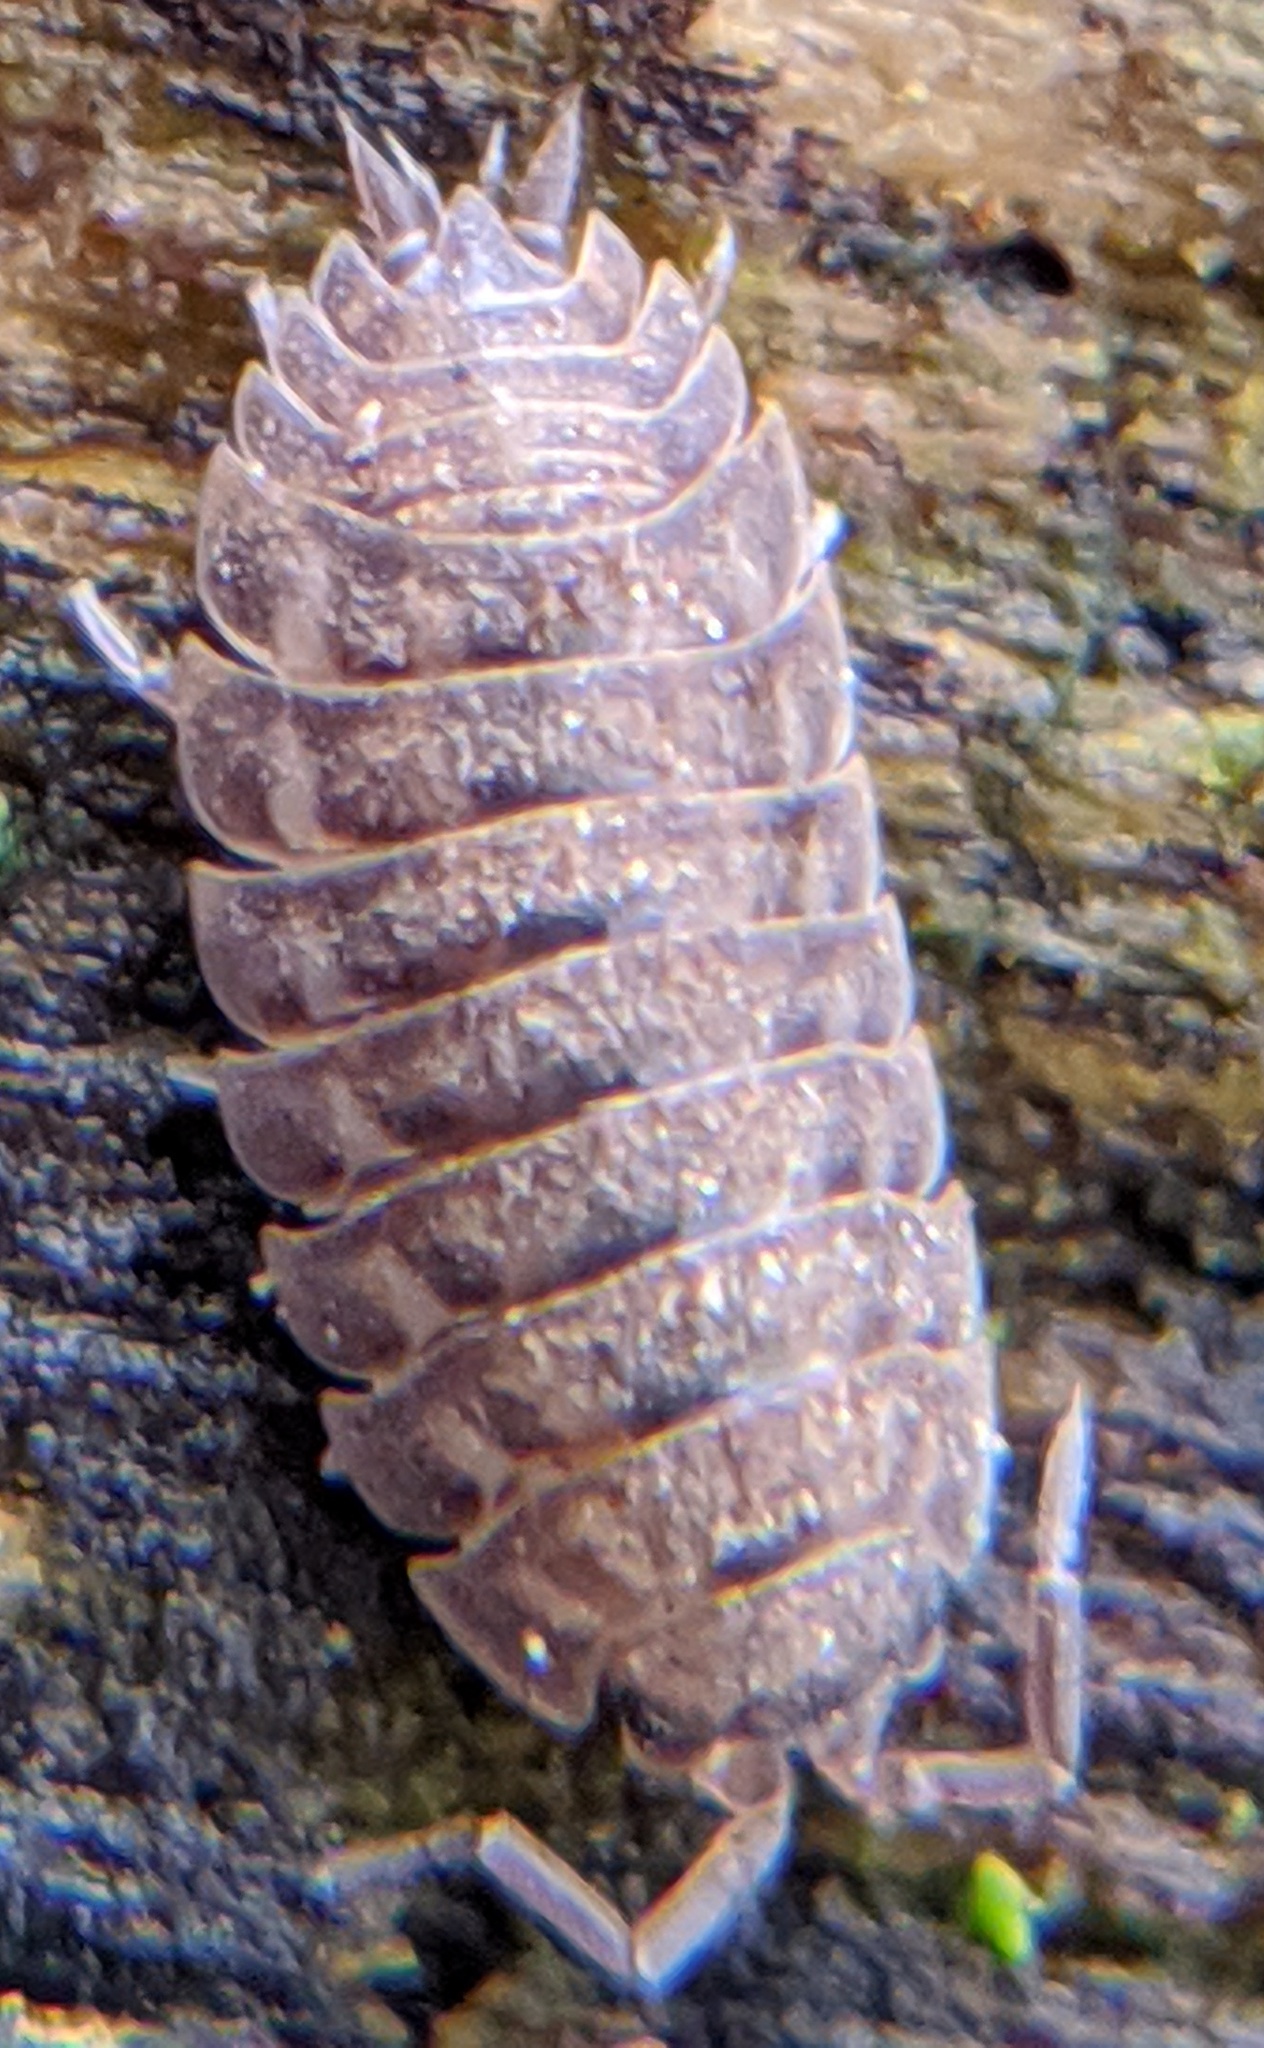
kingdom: Animalia
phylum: Arthropoda
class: Malacostraca
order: Isopoda
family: Trachelipodidae
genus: Trachelipus
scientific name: Trachelipus rathkii
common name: Isopod
